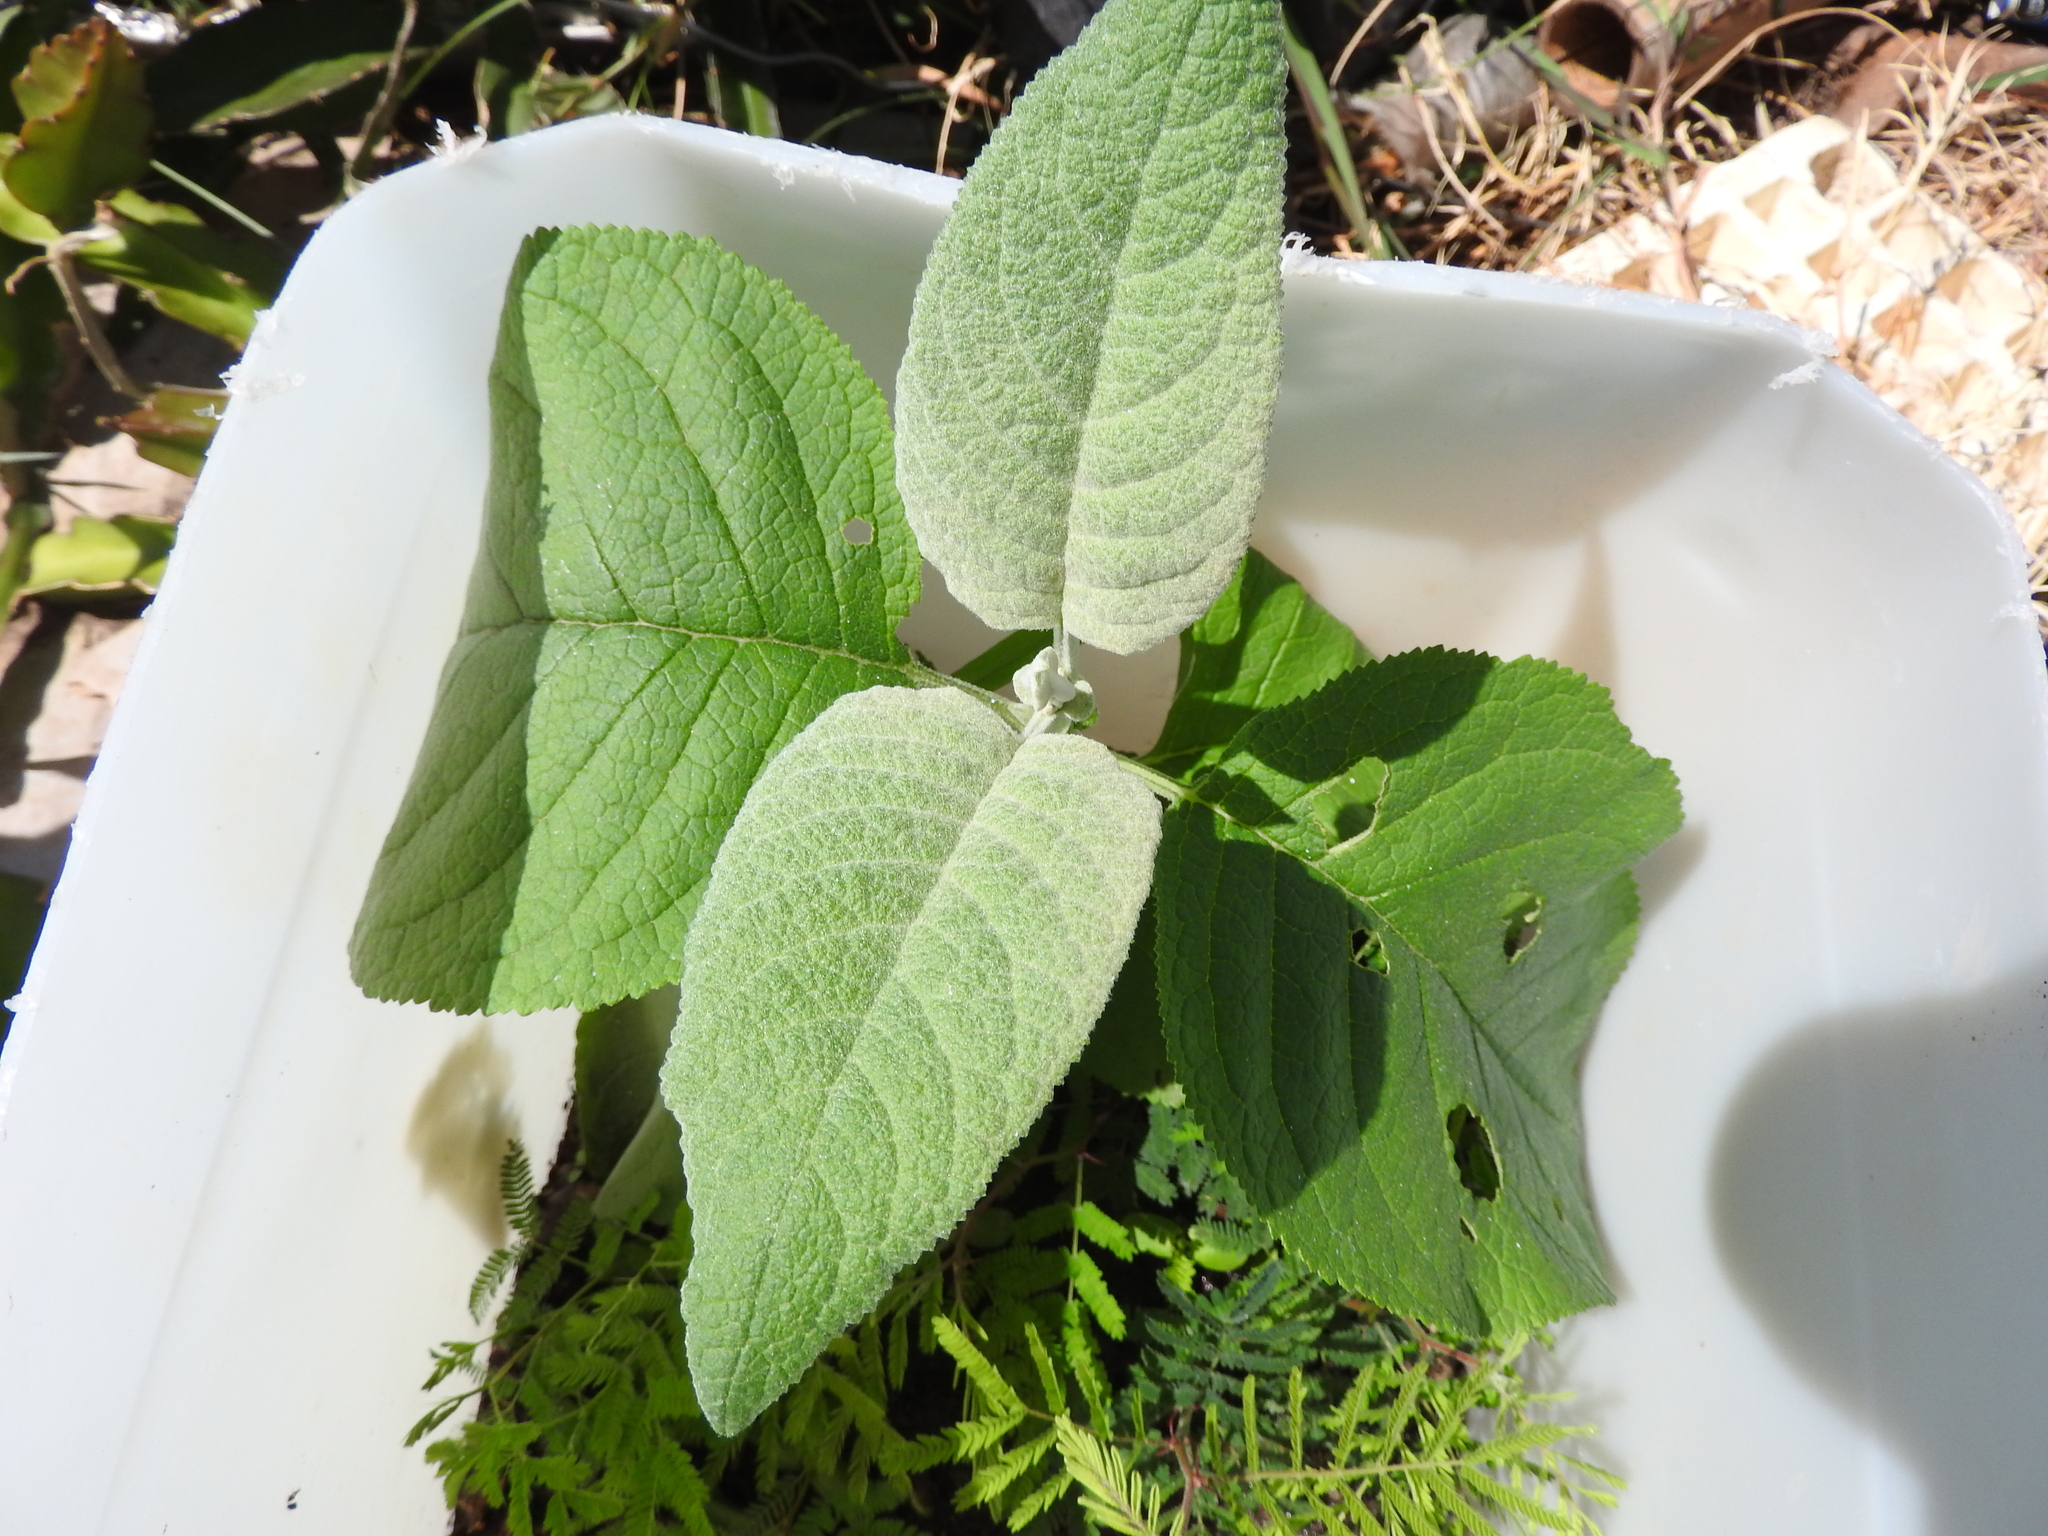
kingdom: Plantae
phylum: Tracheophyta
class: Magnoliopsida
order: Lamiales
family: Scrophulariaceae
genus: Buddleja
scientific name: Buddleja cordata
